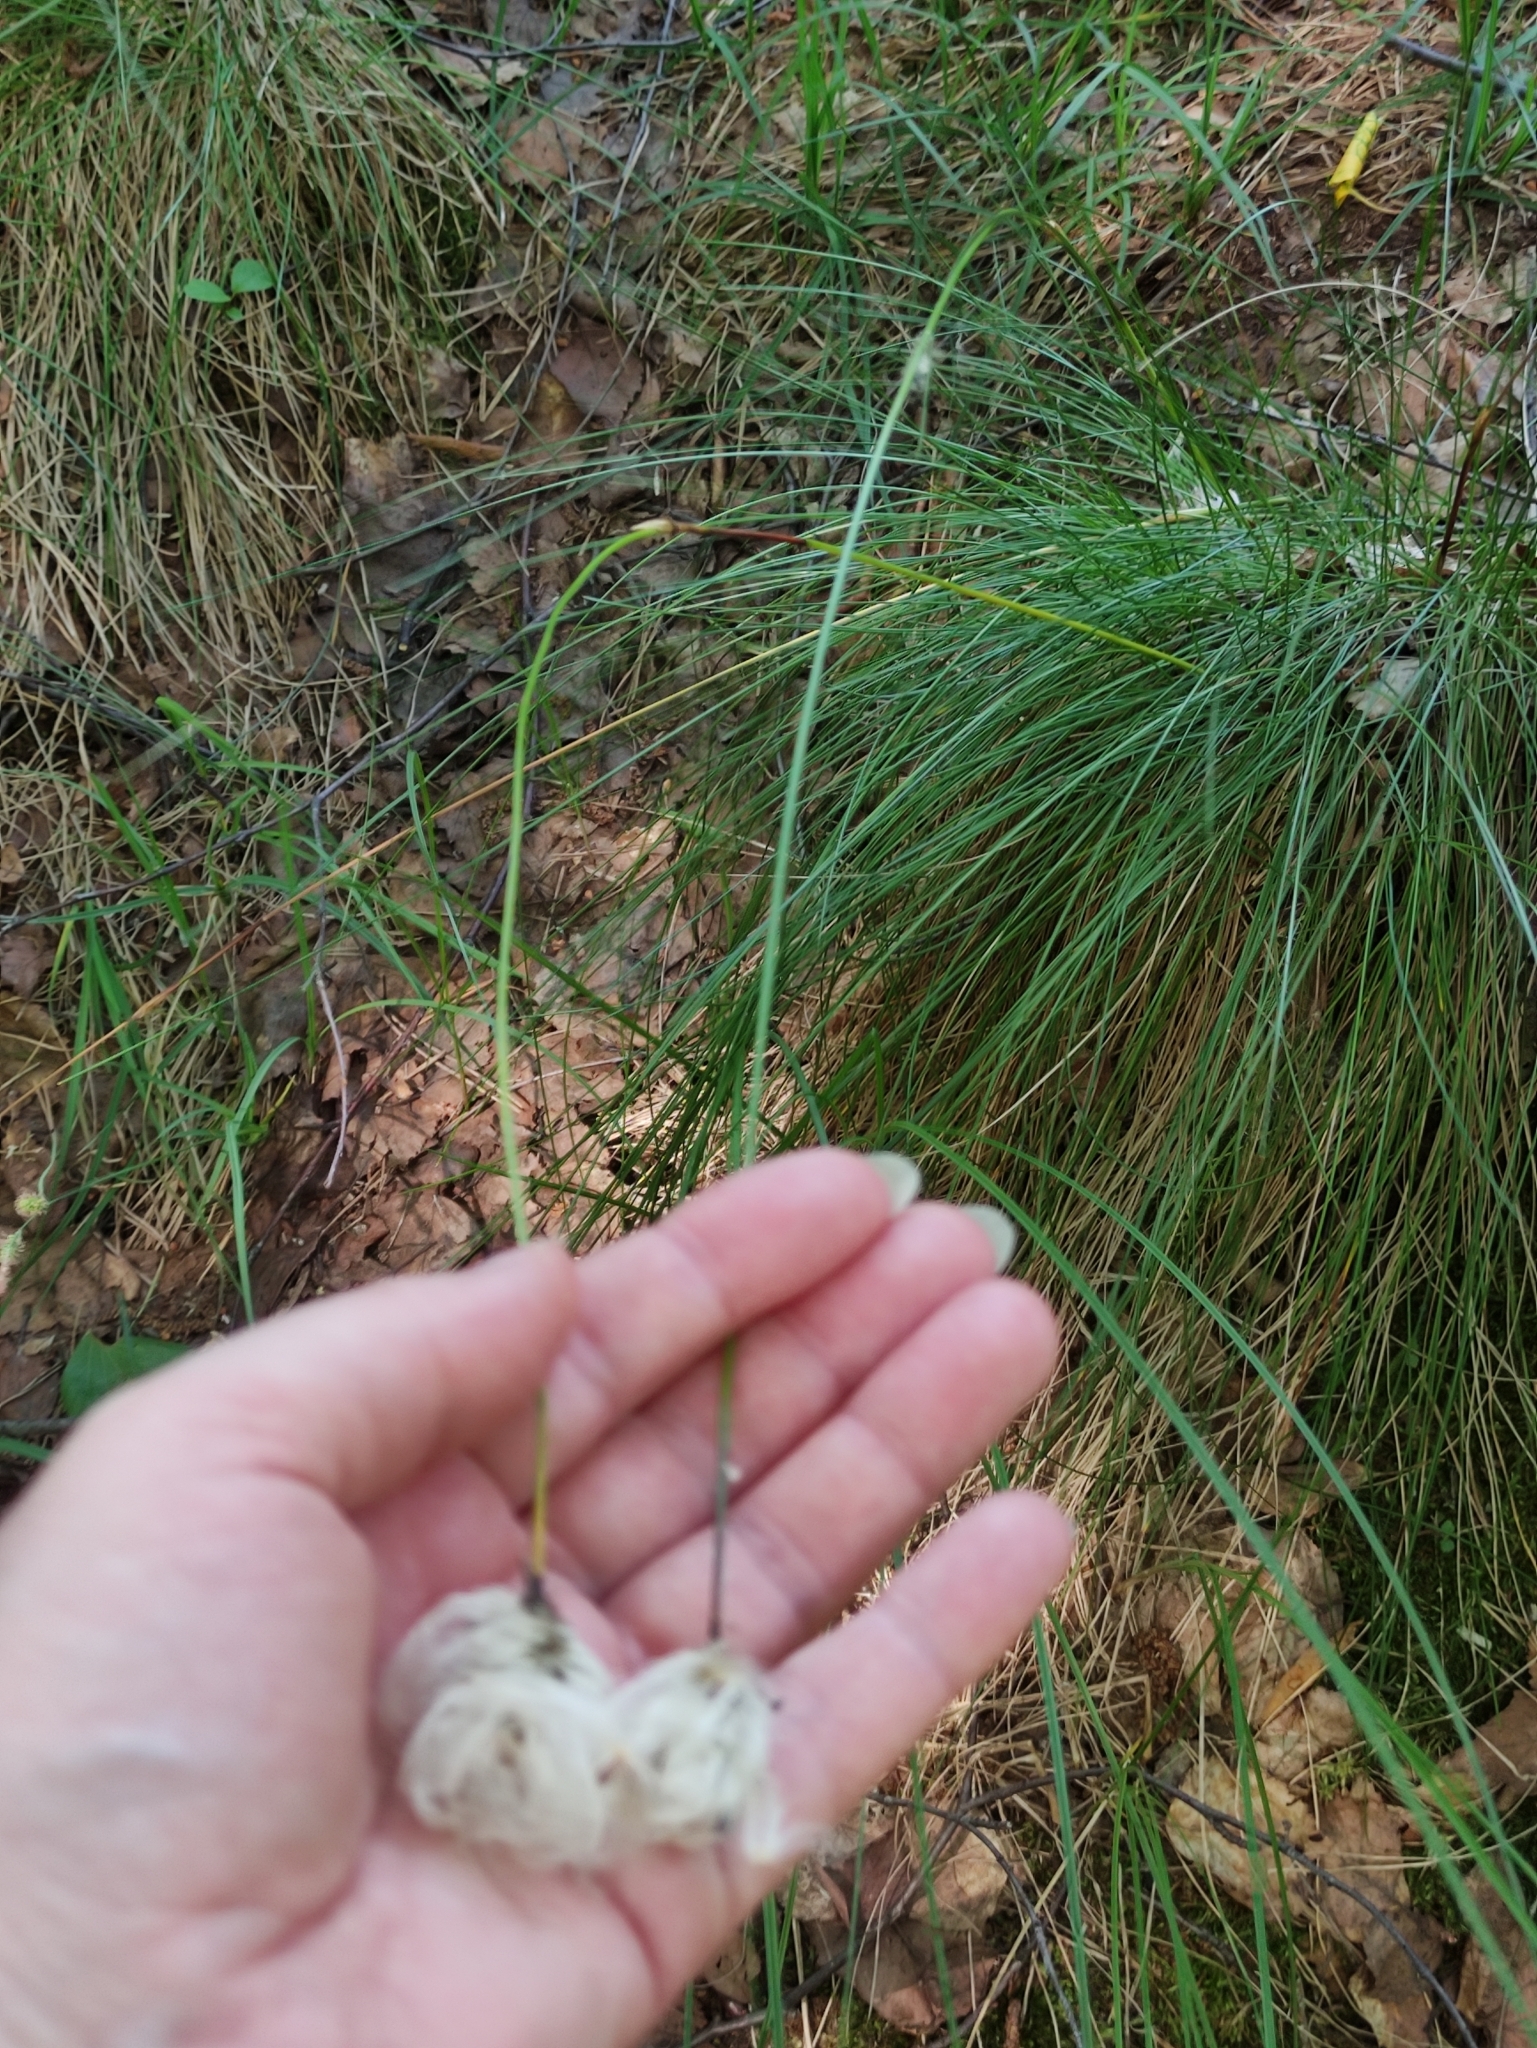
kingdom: Plantae
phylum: Tracheophyta
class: Liliopsida
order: Poales
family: Cyperaceae
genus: Eriophorum
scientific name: Eriophorum vaginatum
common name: Hare's-tail cottongrass
